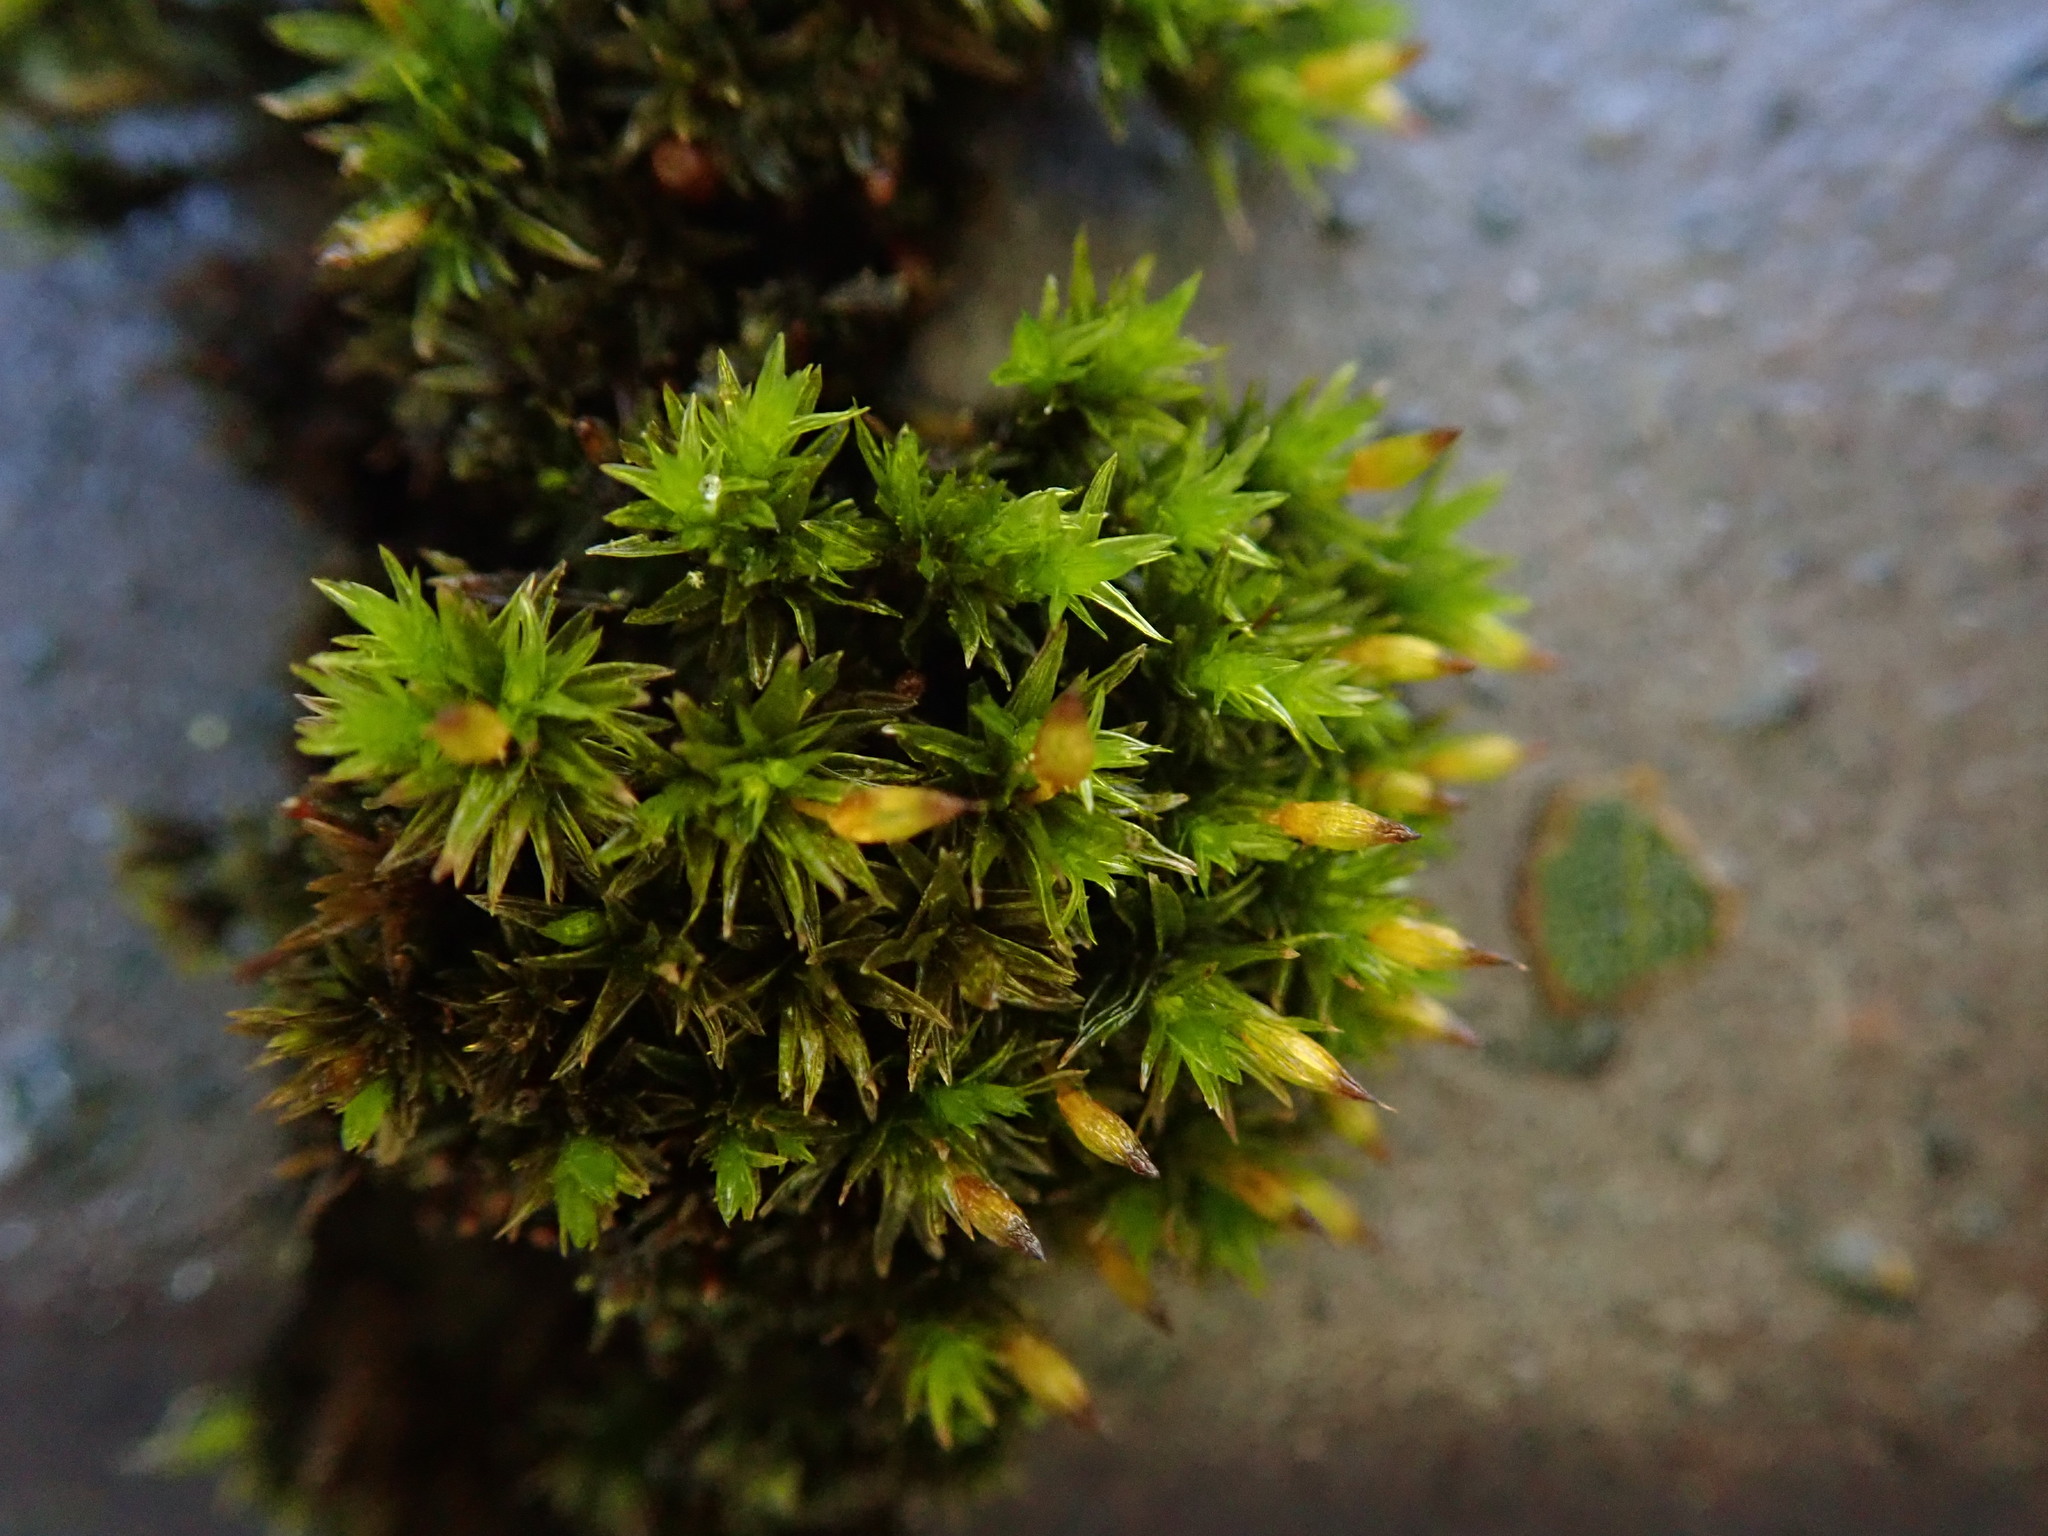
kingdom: Plantae
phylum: Bryophyta
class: Bryopsida
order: Orthotrichales
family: Orthotrichaceae
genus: Orthotrichum
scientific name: Orthotrichum anomalum
